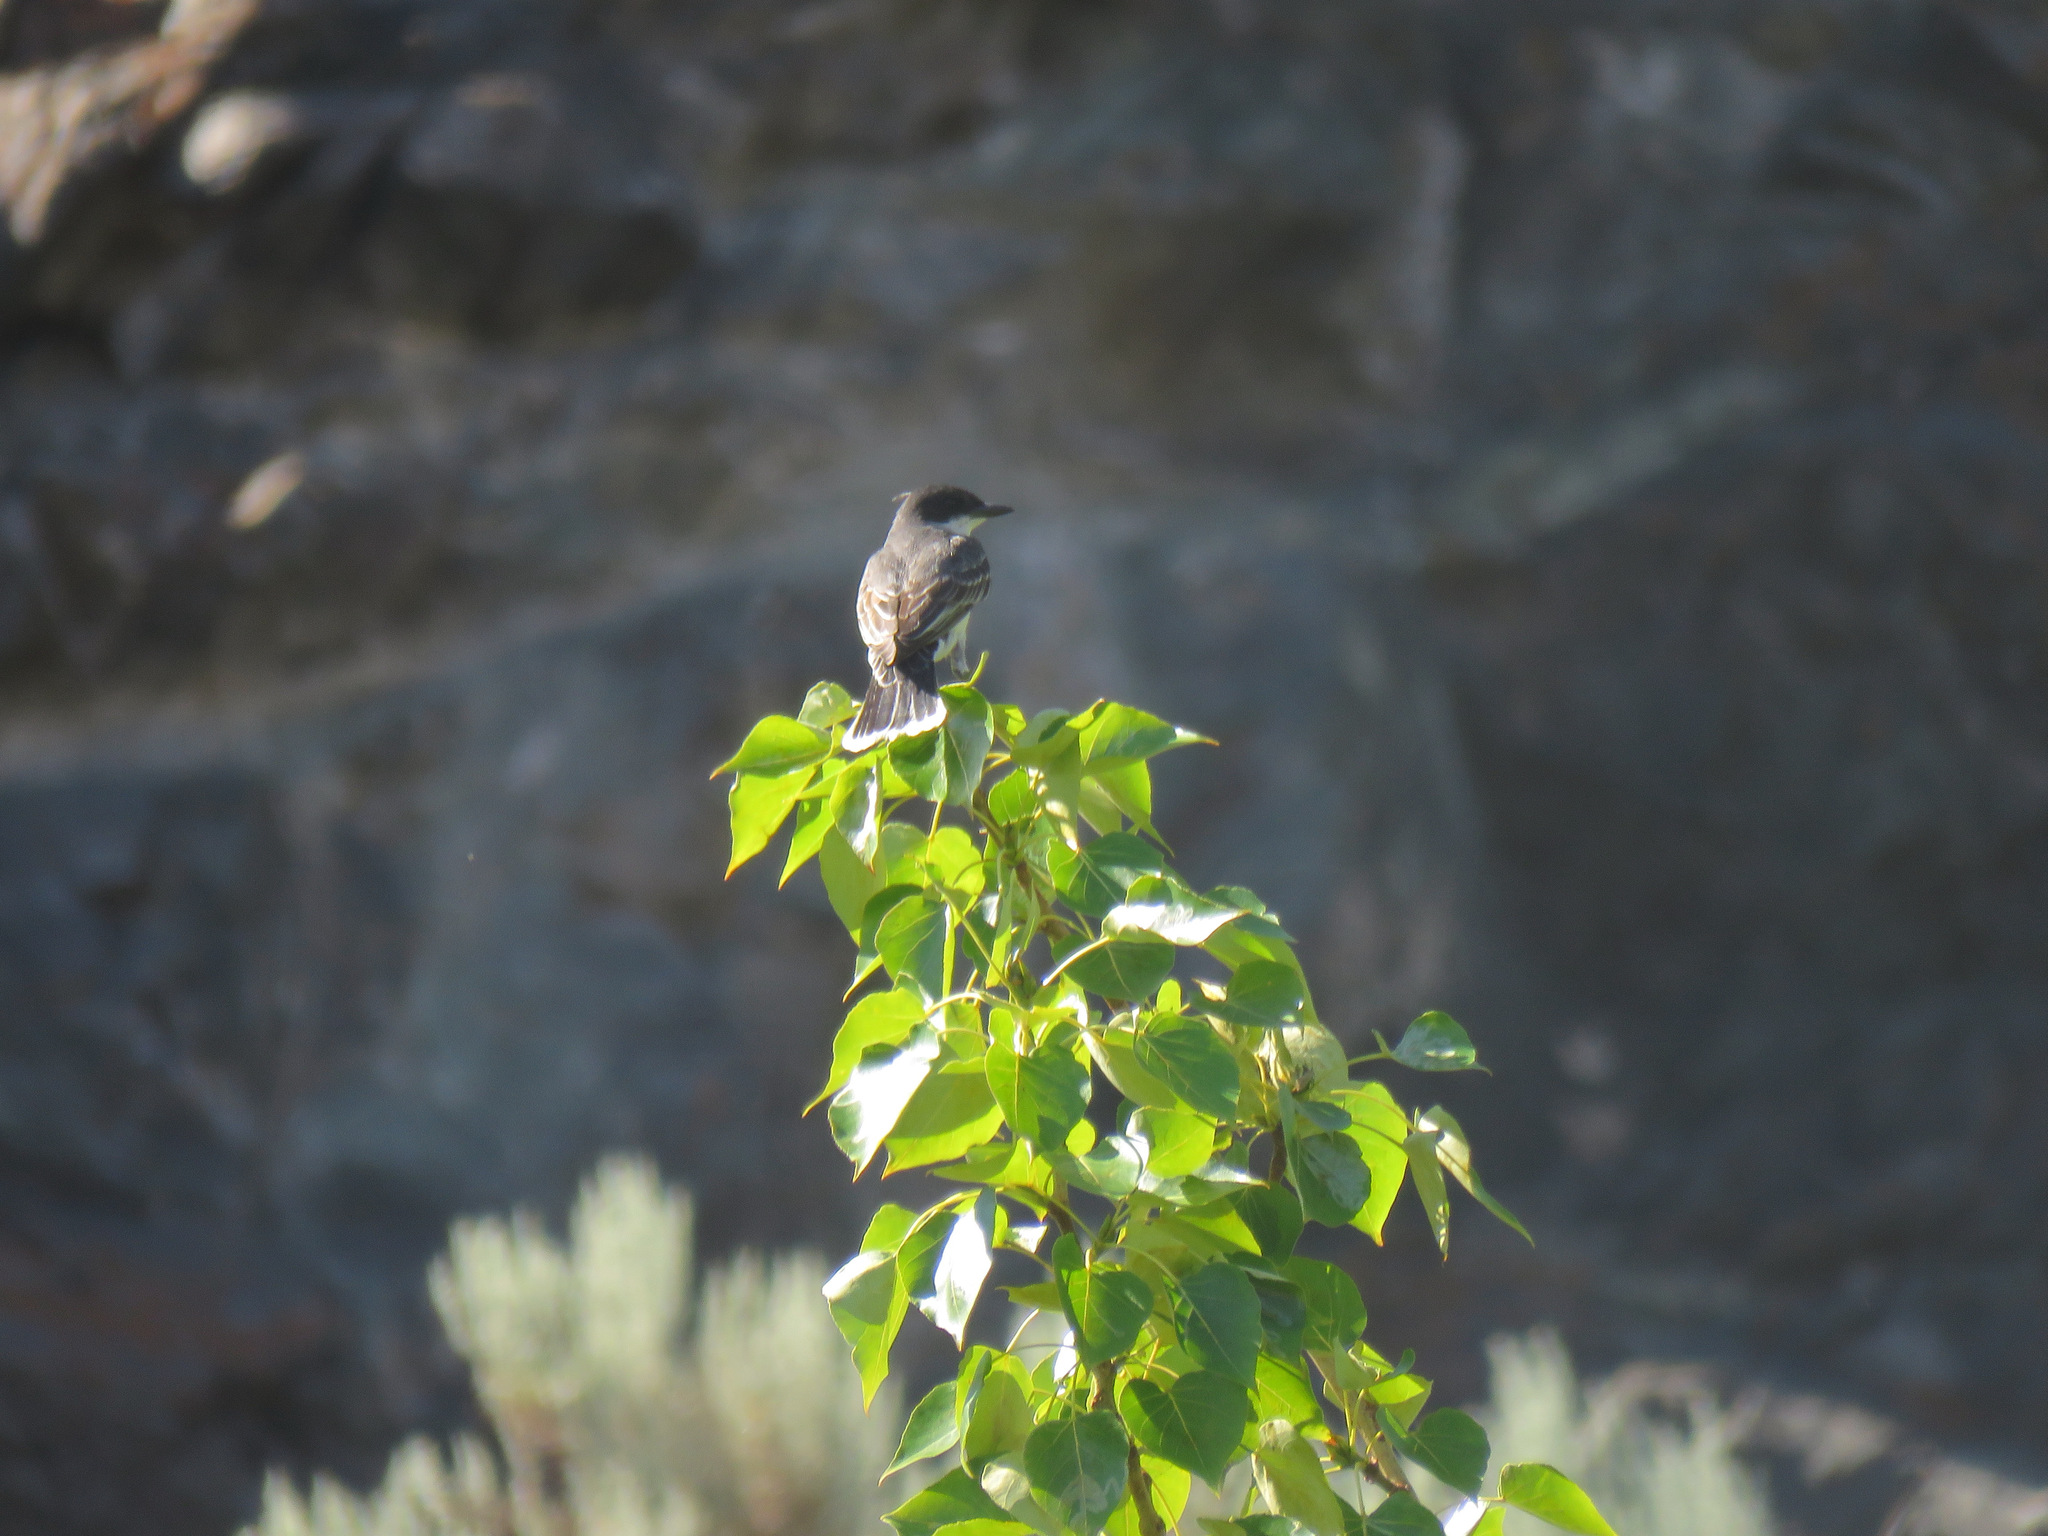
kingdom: Animalia
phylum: Chordata
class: Aves
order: Passeriformes
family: Tyrannidae
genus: Tyrannus
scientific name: Tyrannus tyrannus
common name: Eastern kingbird
